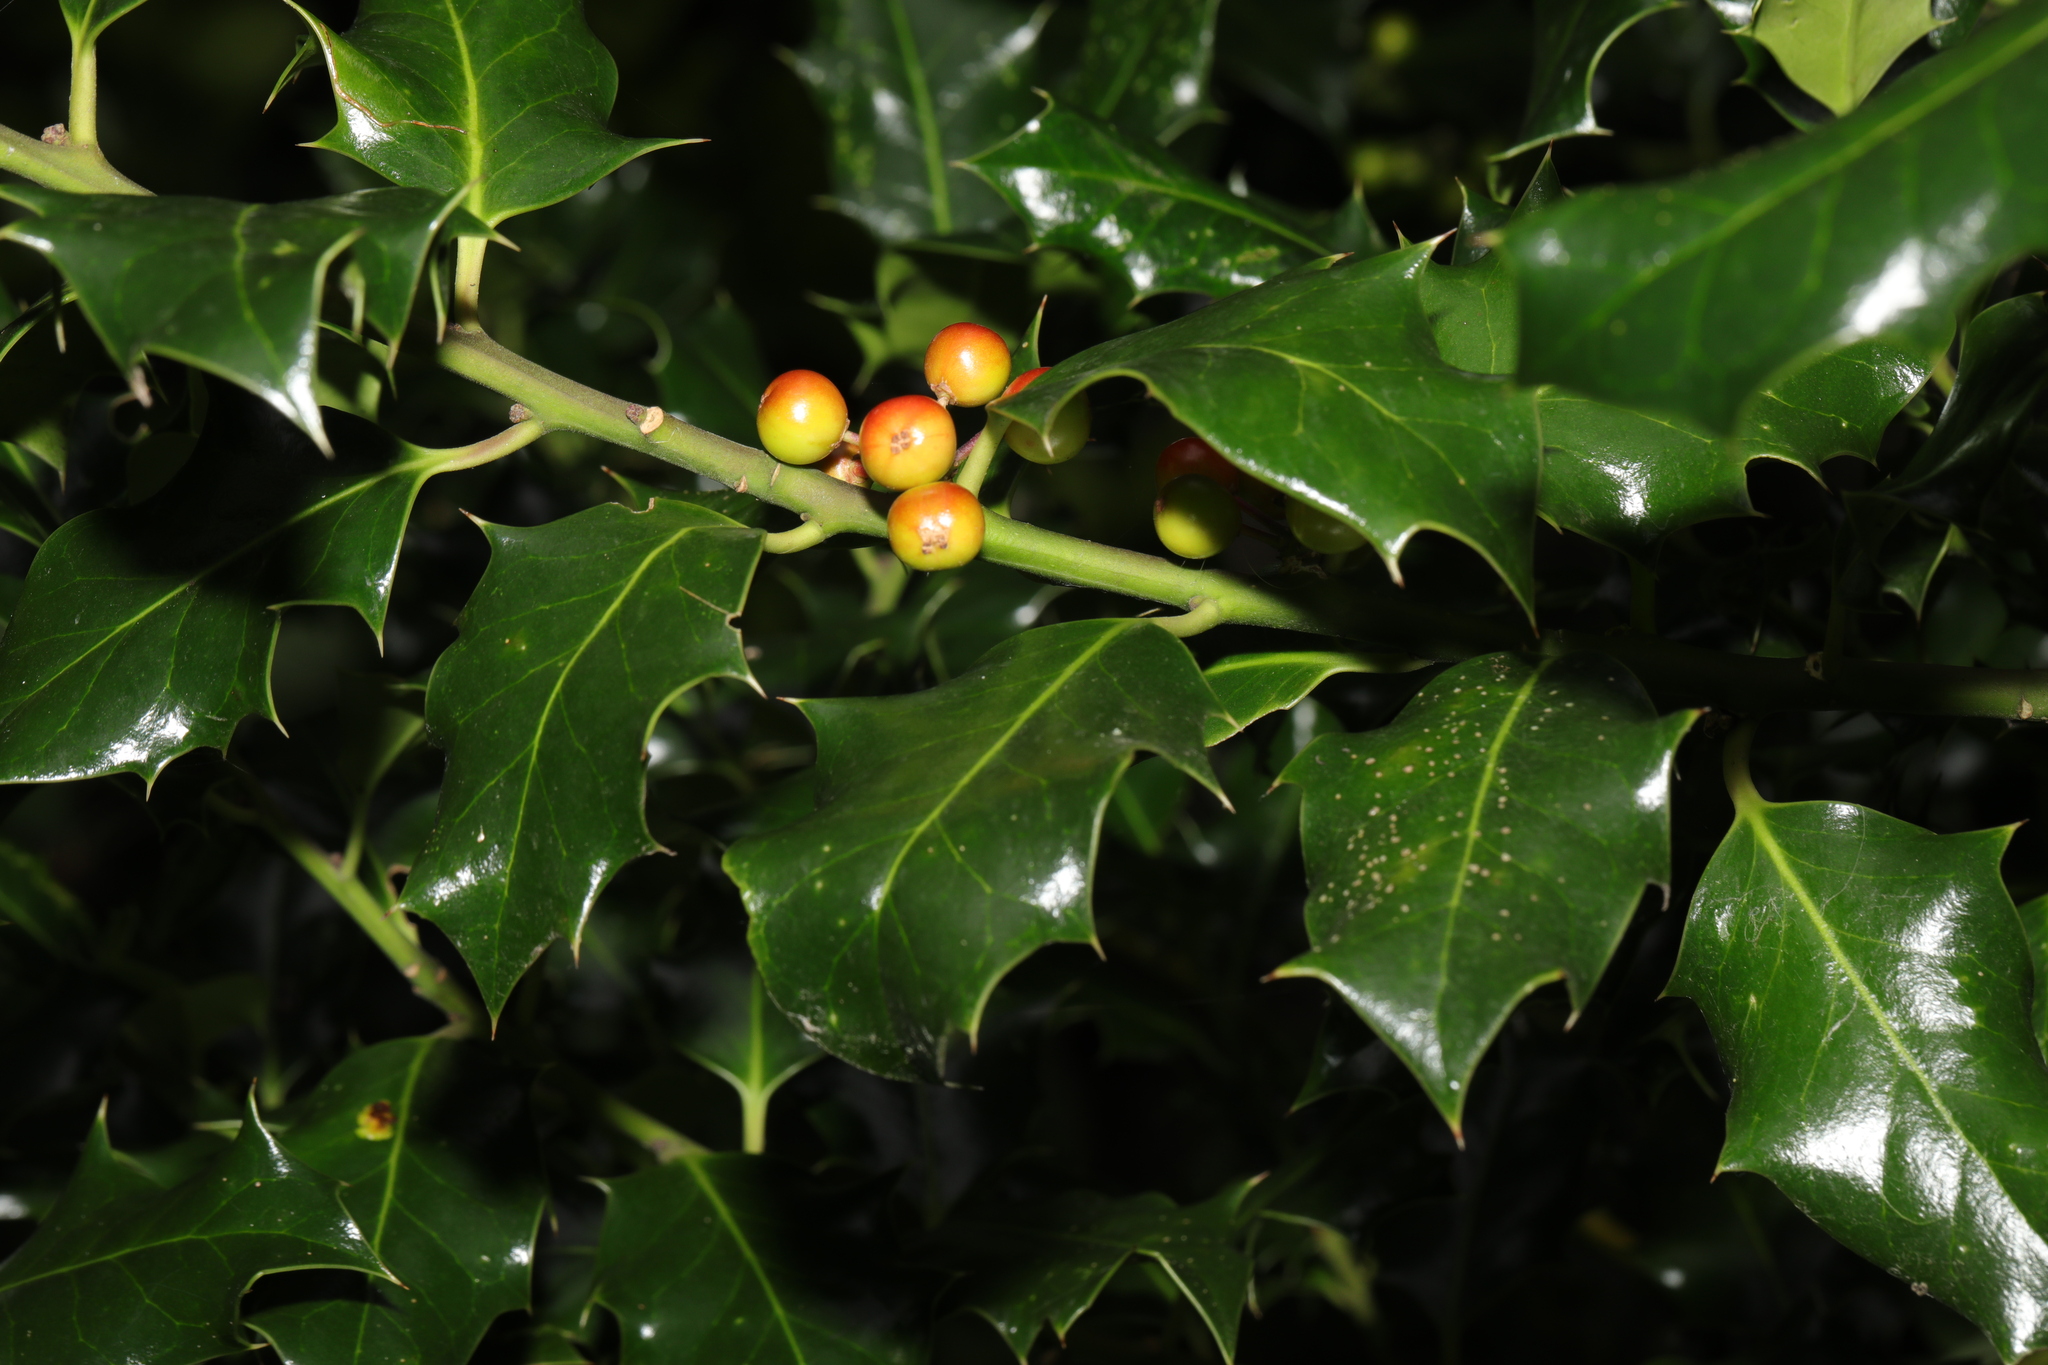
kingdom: Plantae
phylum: Tracheophyta
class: Magnoliopsida
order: Aquifoliales
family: Aquifoliaceae
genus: Ilex
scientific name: Ilex aquifolium
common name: English holly
